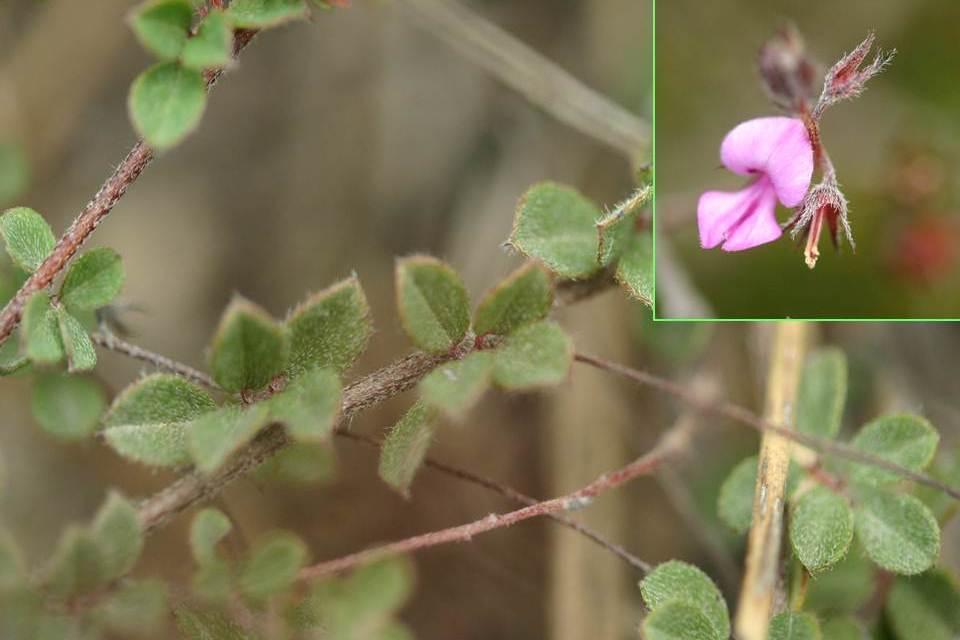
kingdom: Plantae
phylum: Tracheophyta
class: Magnoliopsida
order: Fabales
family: Fabaceae
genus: Indigofera
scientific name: Indigofera alopecuroides
